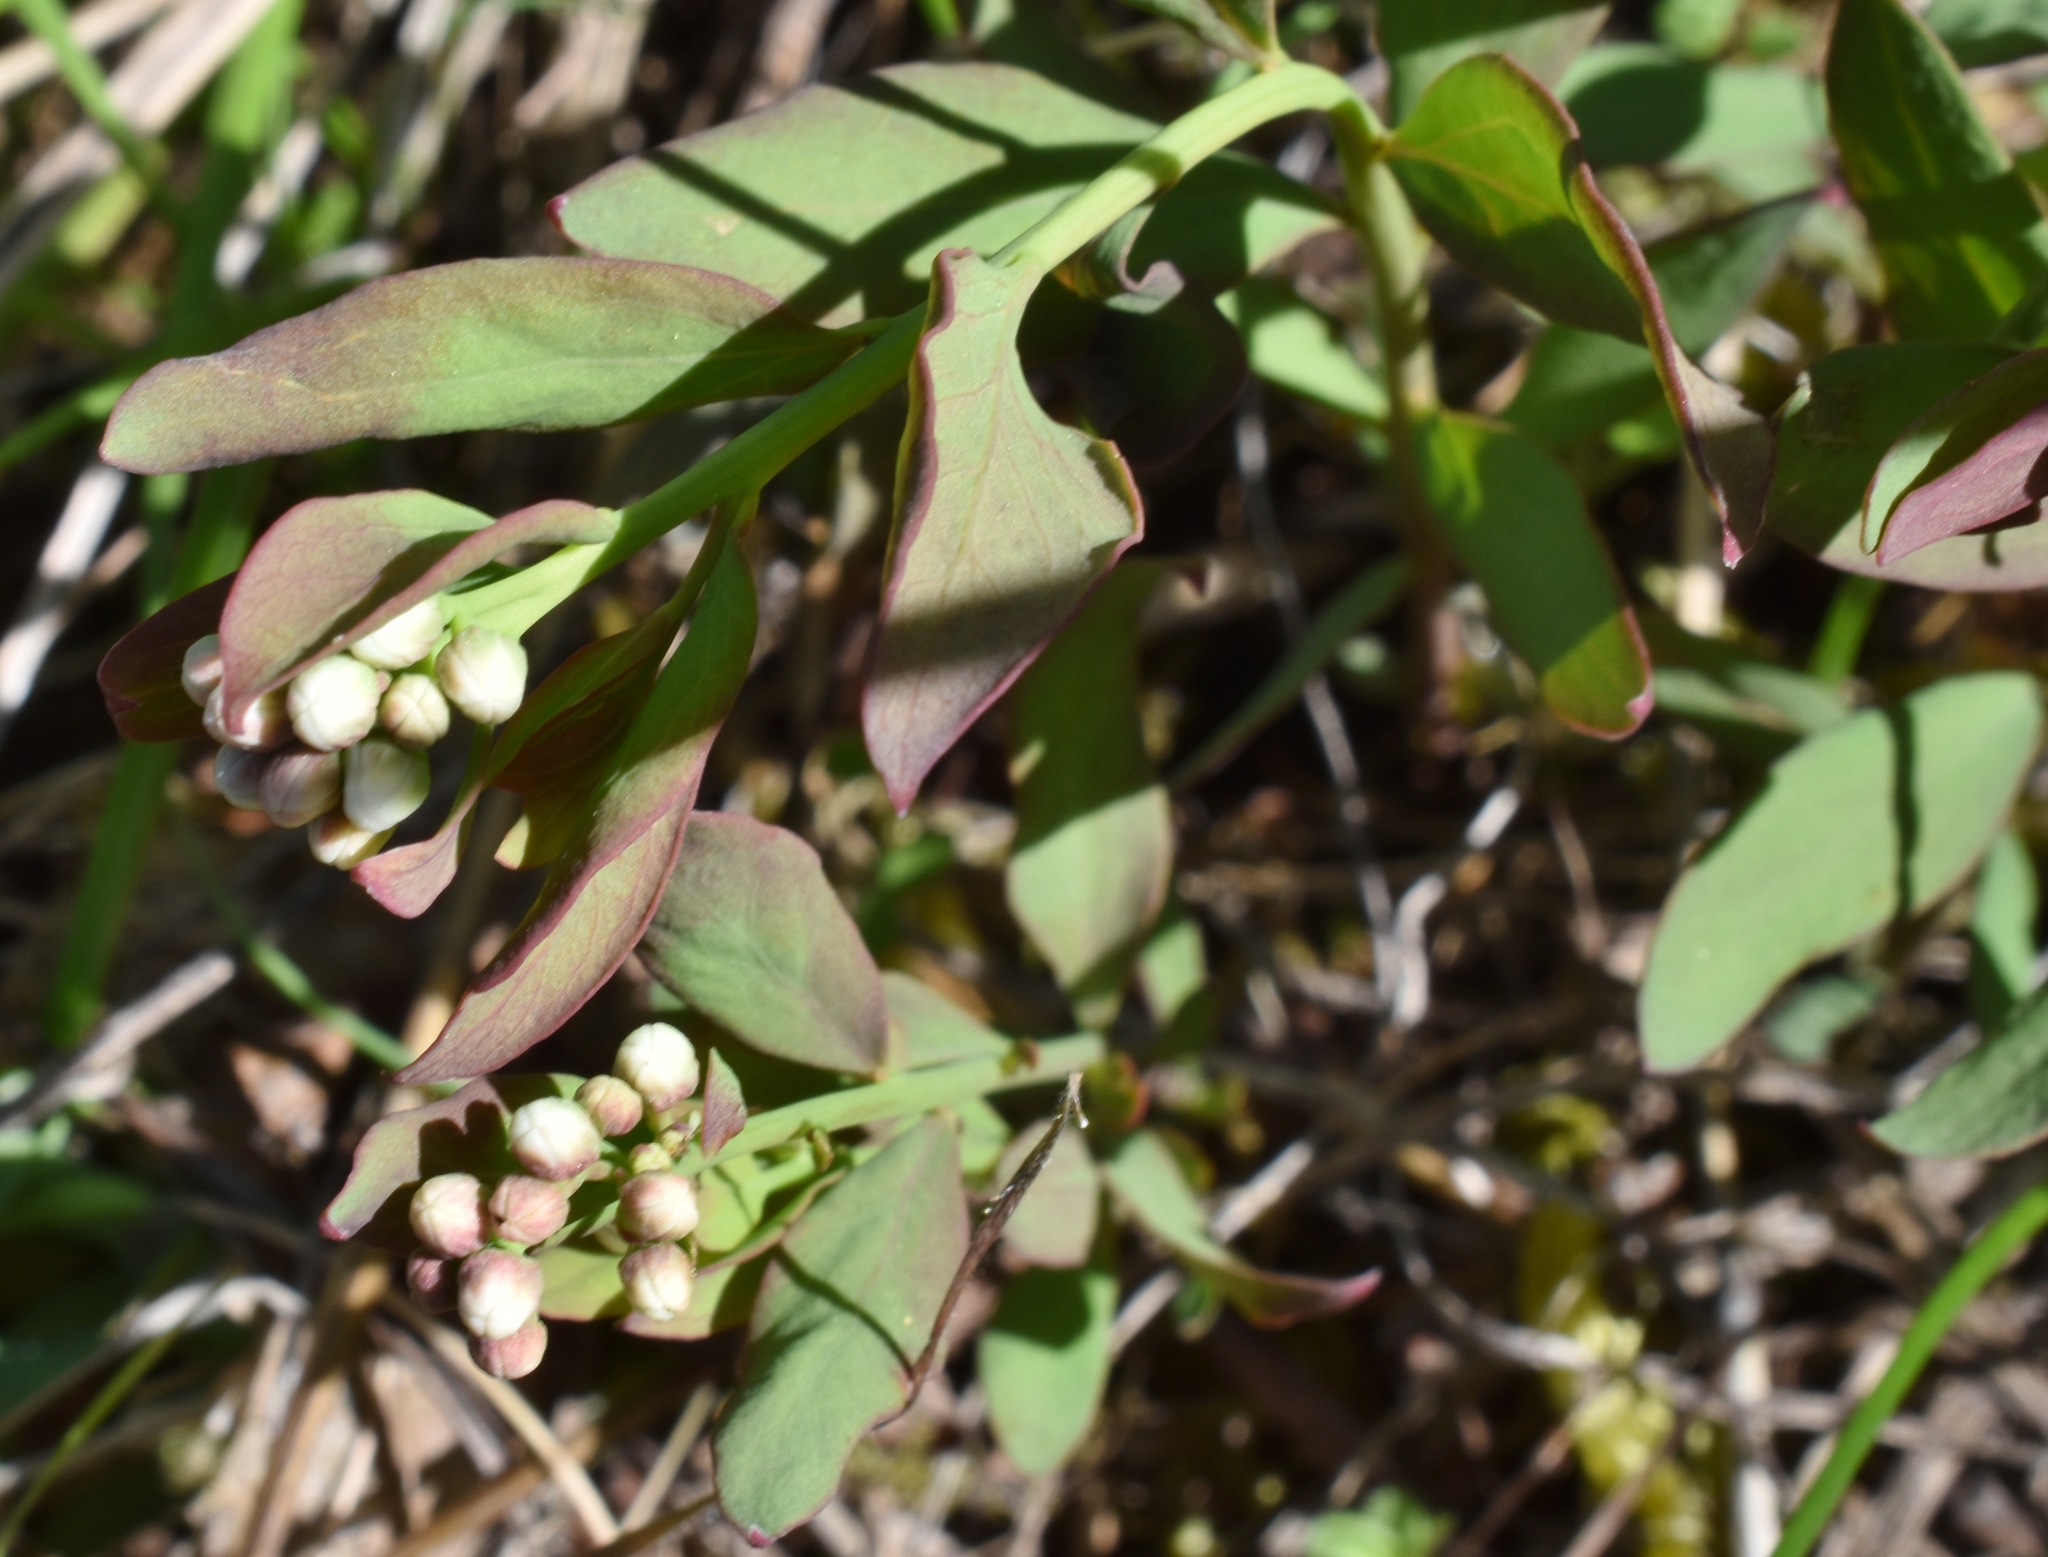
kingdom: Plantae
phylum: Tracheophyta
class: Magnoliopsida
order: Santalales
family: Comandraceae
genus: Comandra
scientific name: Comandra umbellata
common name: Bastard toadflax
